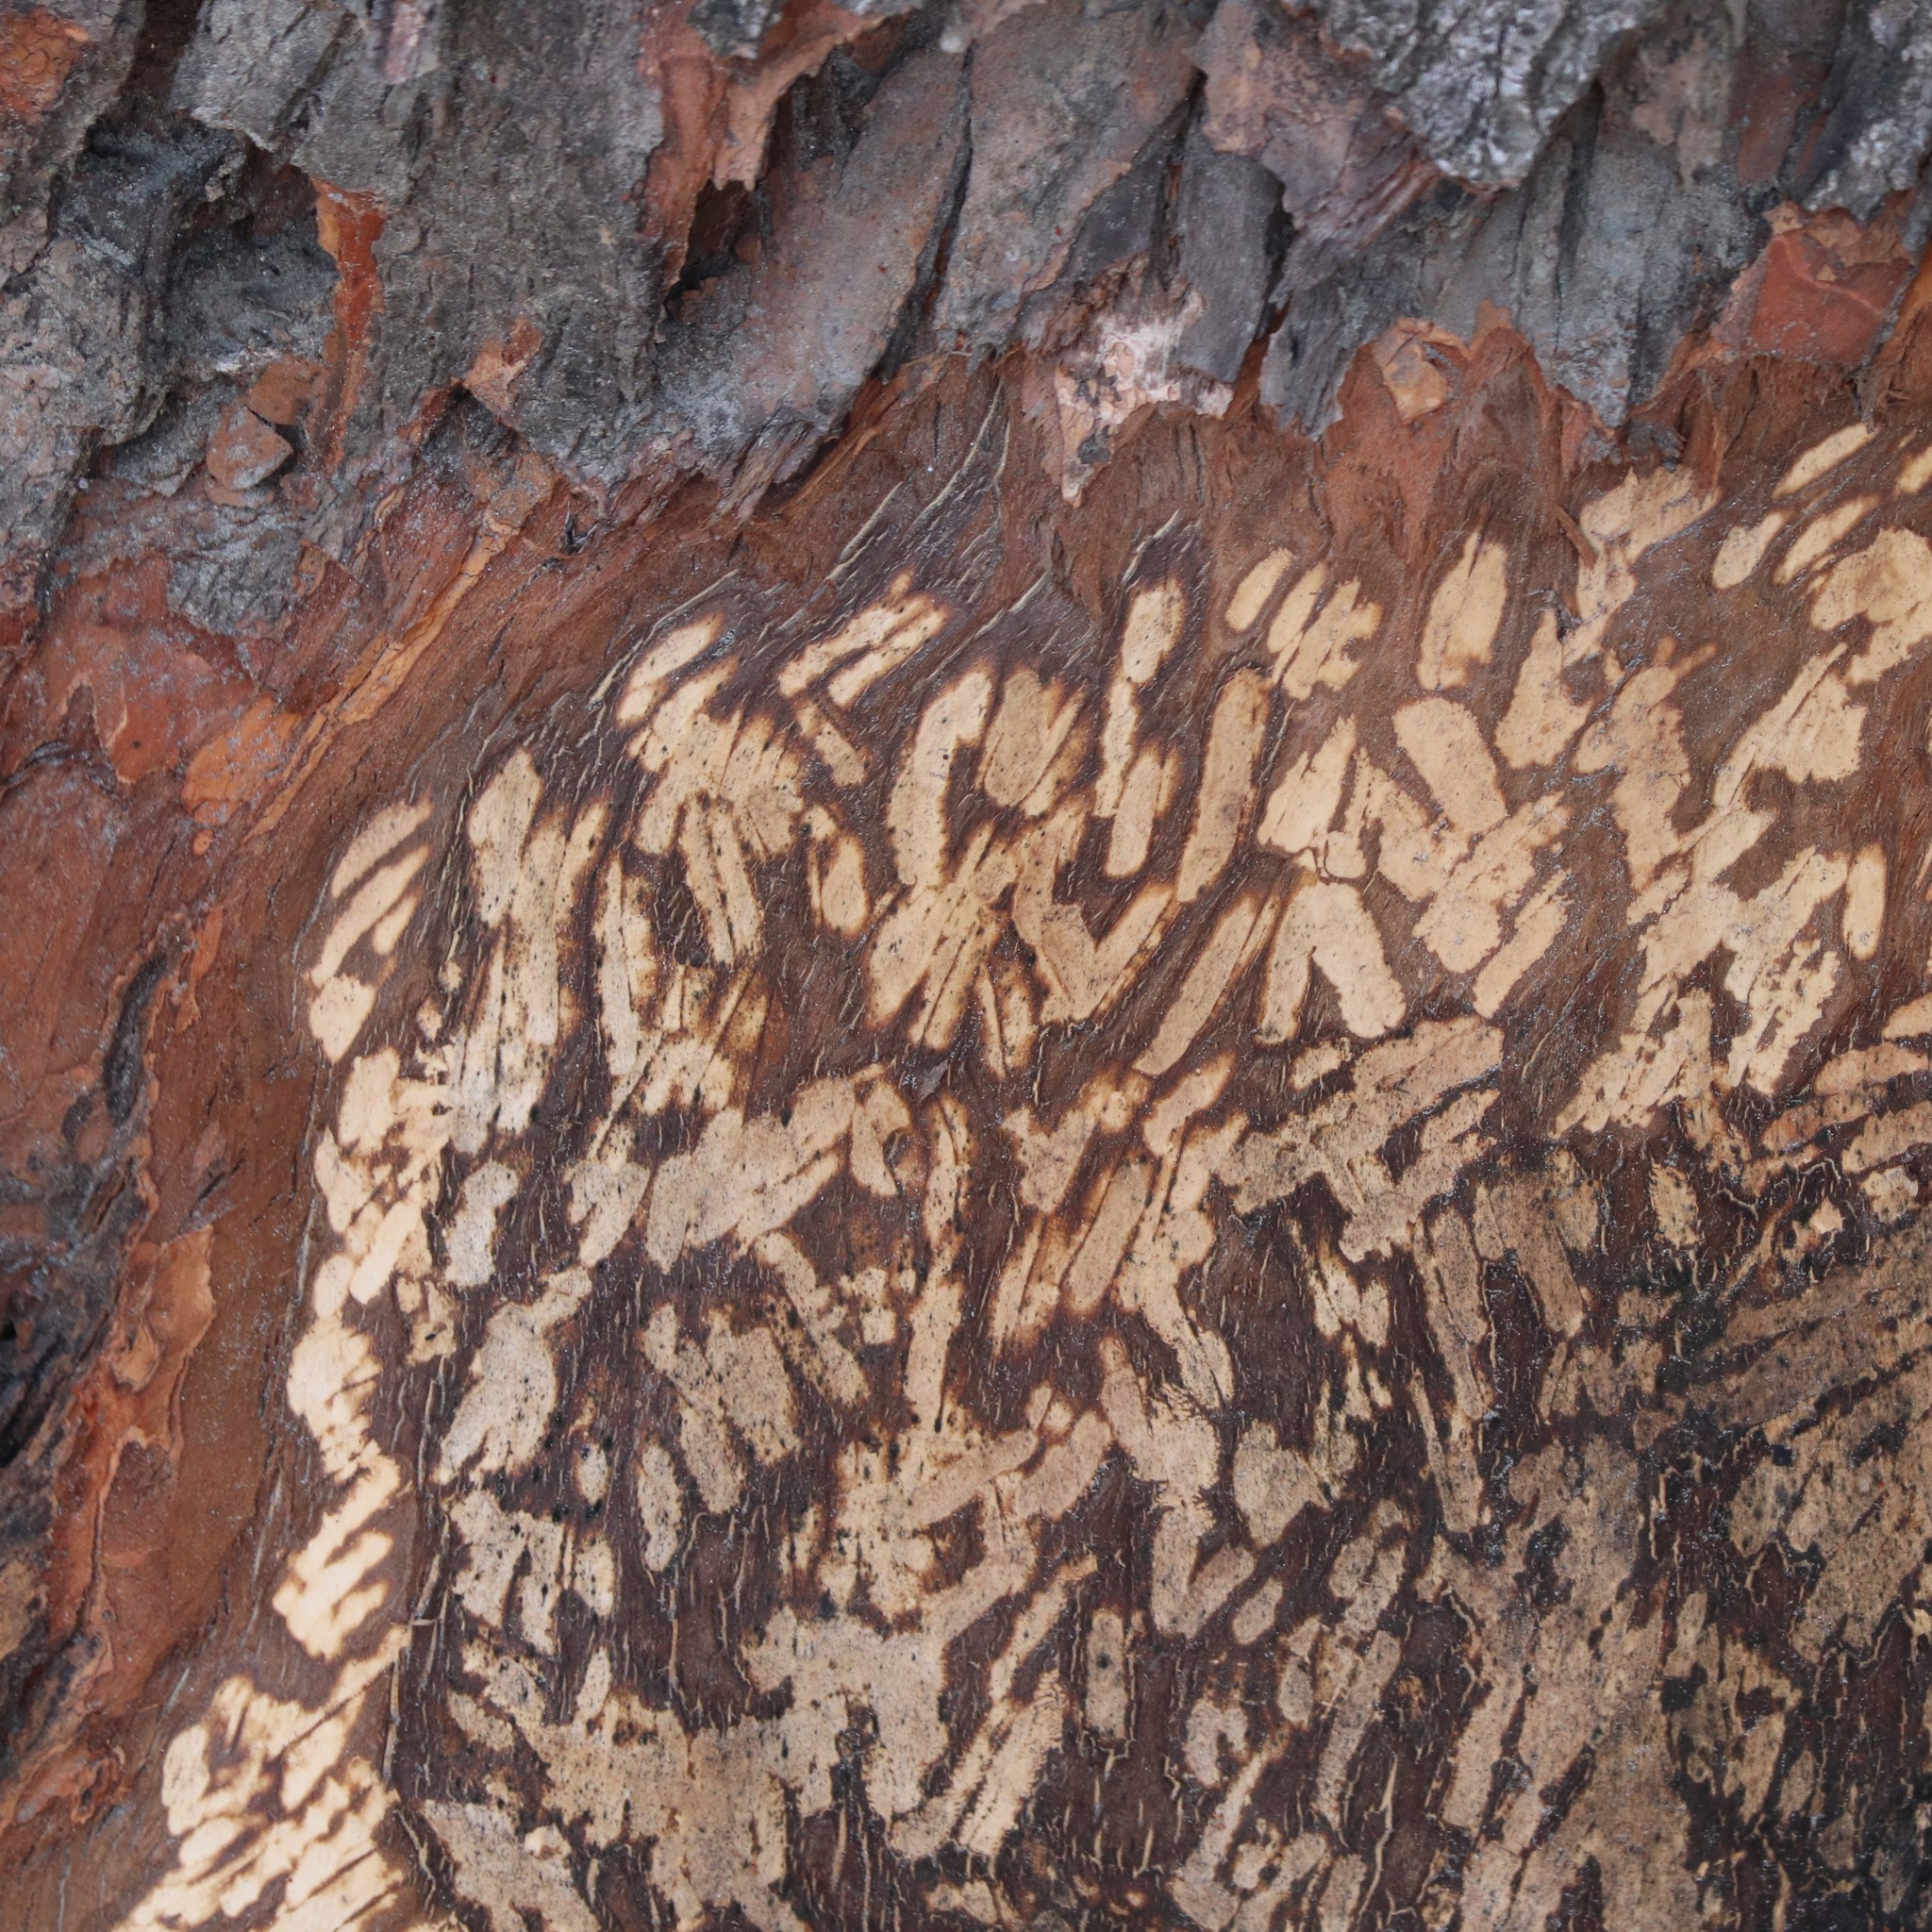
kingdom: Animalia
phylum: Chordata
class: Mammalia
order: Rodentia
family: Castoridae
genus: Castor
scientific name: Castor canadensis
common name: American beaver
